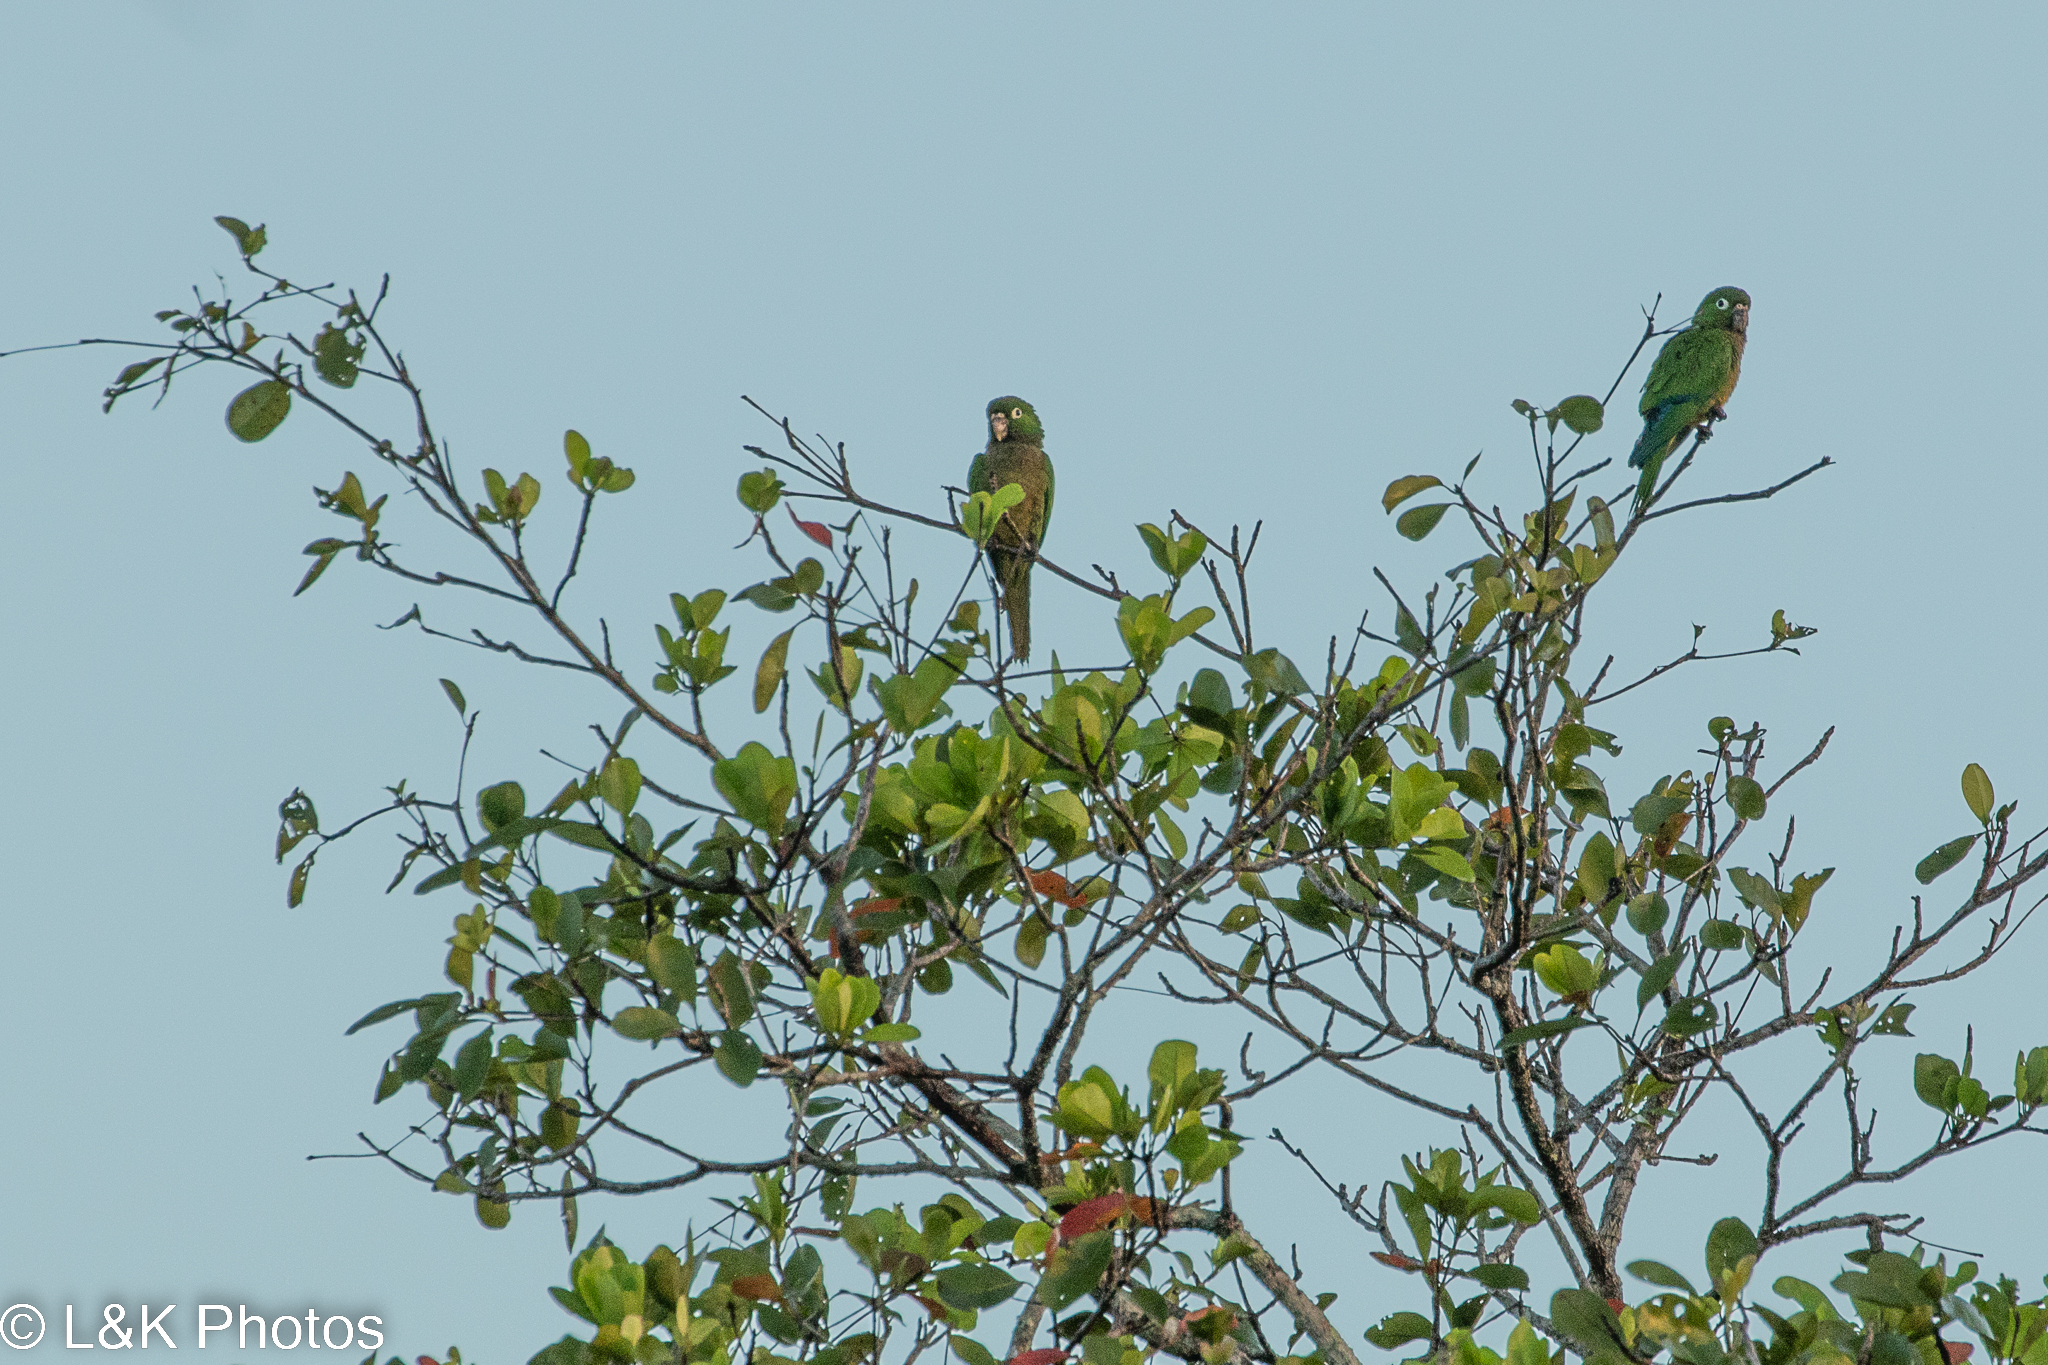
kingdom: Animalia
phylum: Chordata
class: Aves
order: Psittaciformes
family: Psittacidae
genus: Aratinga
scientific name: Aratinga nana
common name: Olive-throated parakeet
